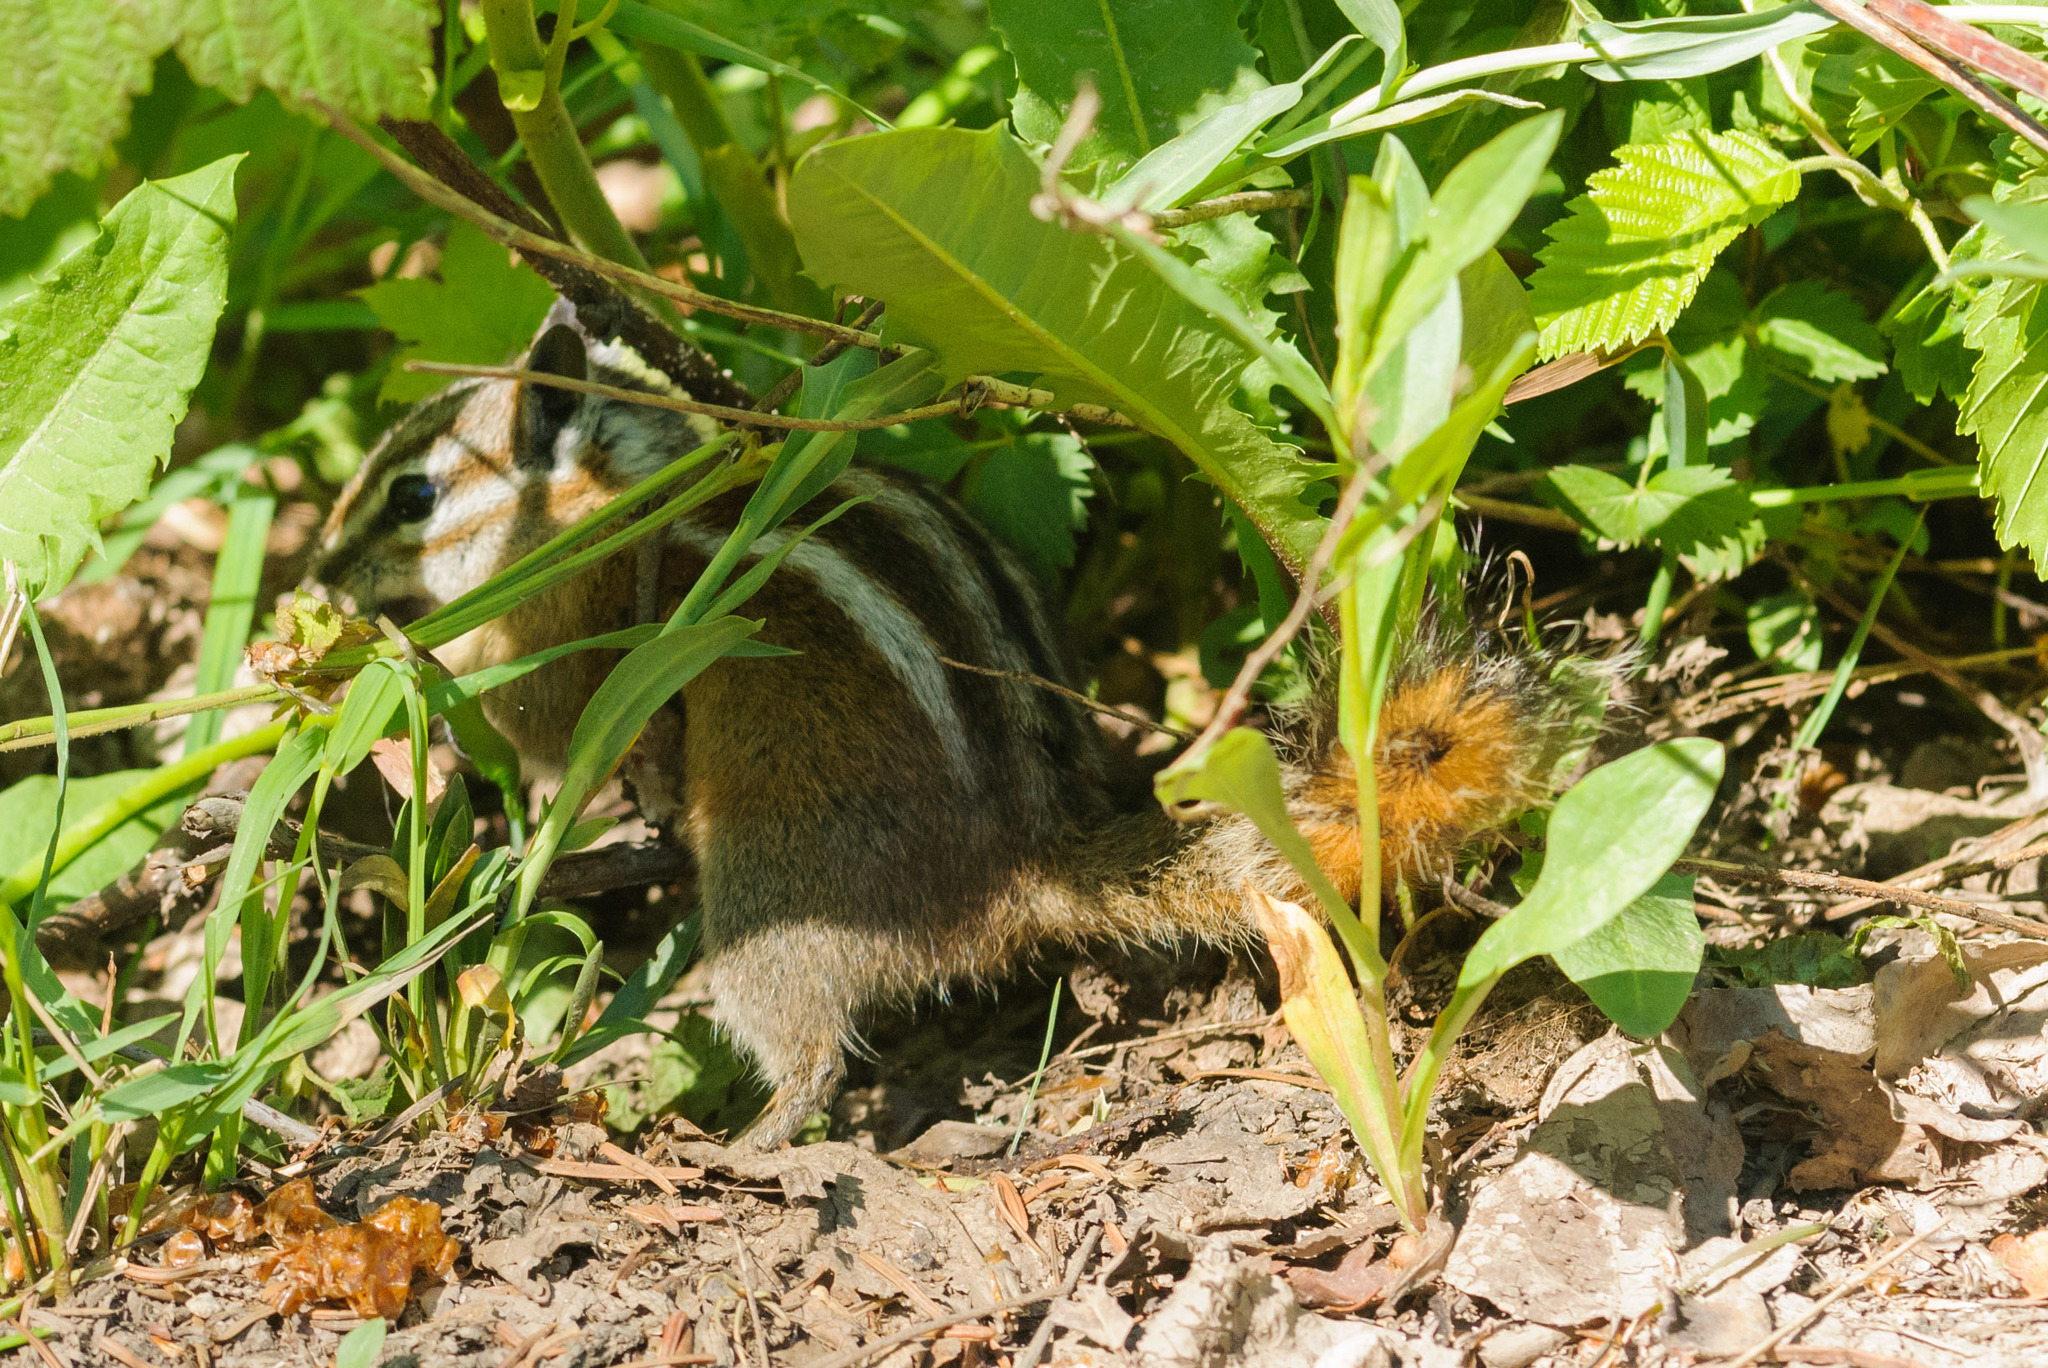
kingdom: Animalia
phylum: Chordata
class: Mammalia
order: Rodentia
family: Sciuridae
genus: Tamias
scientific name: Tamias minimus
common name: Least chipmunk
